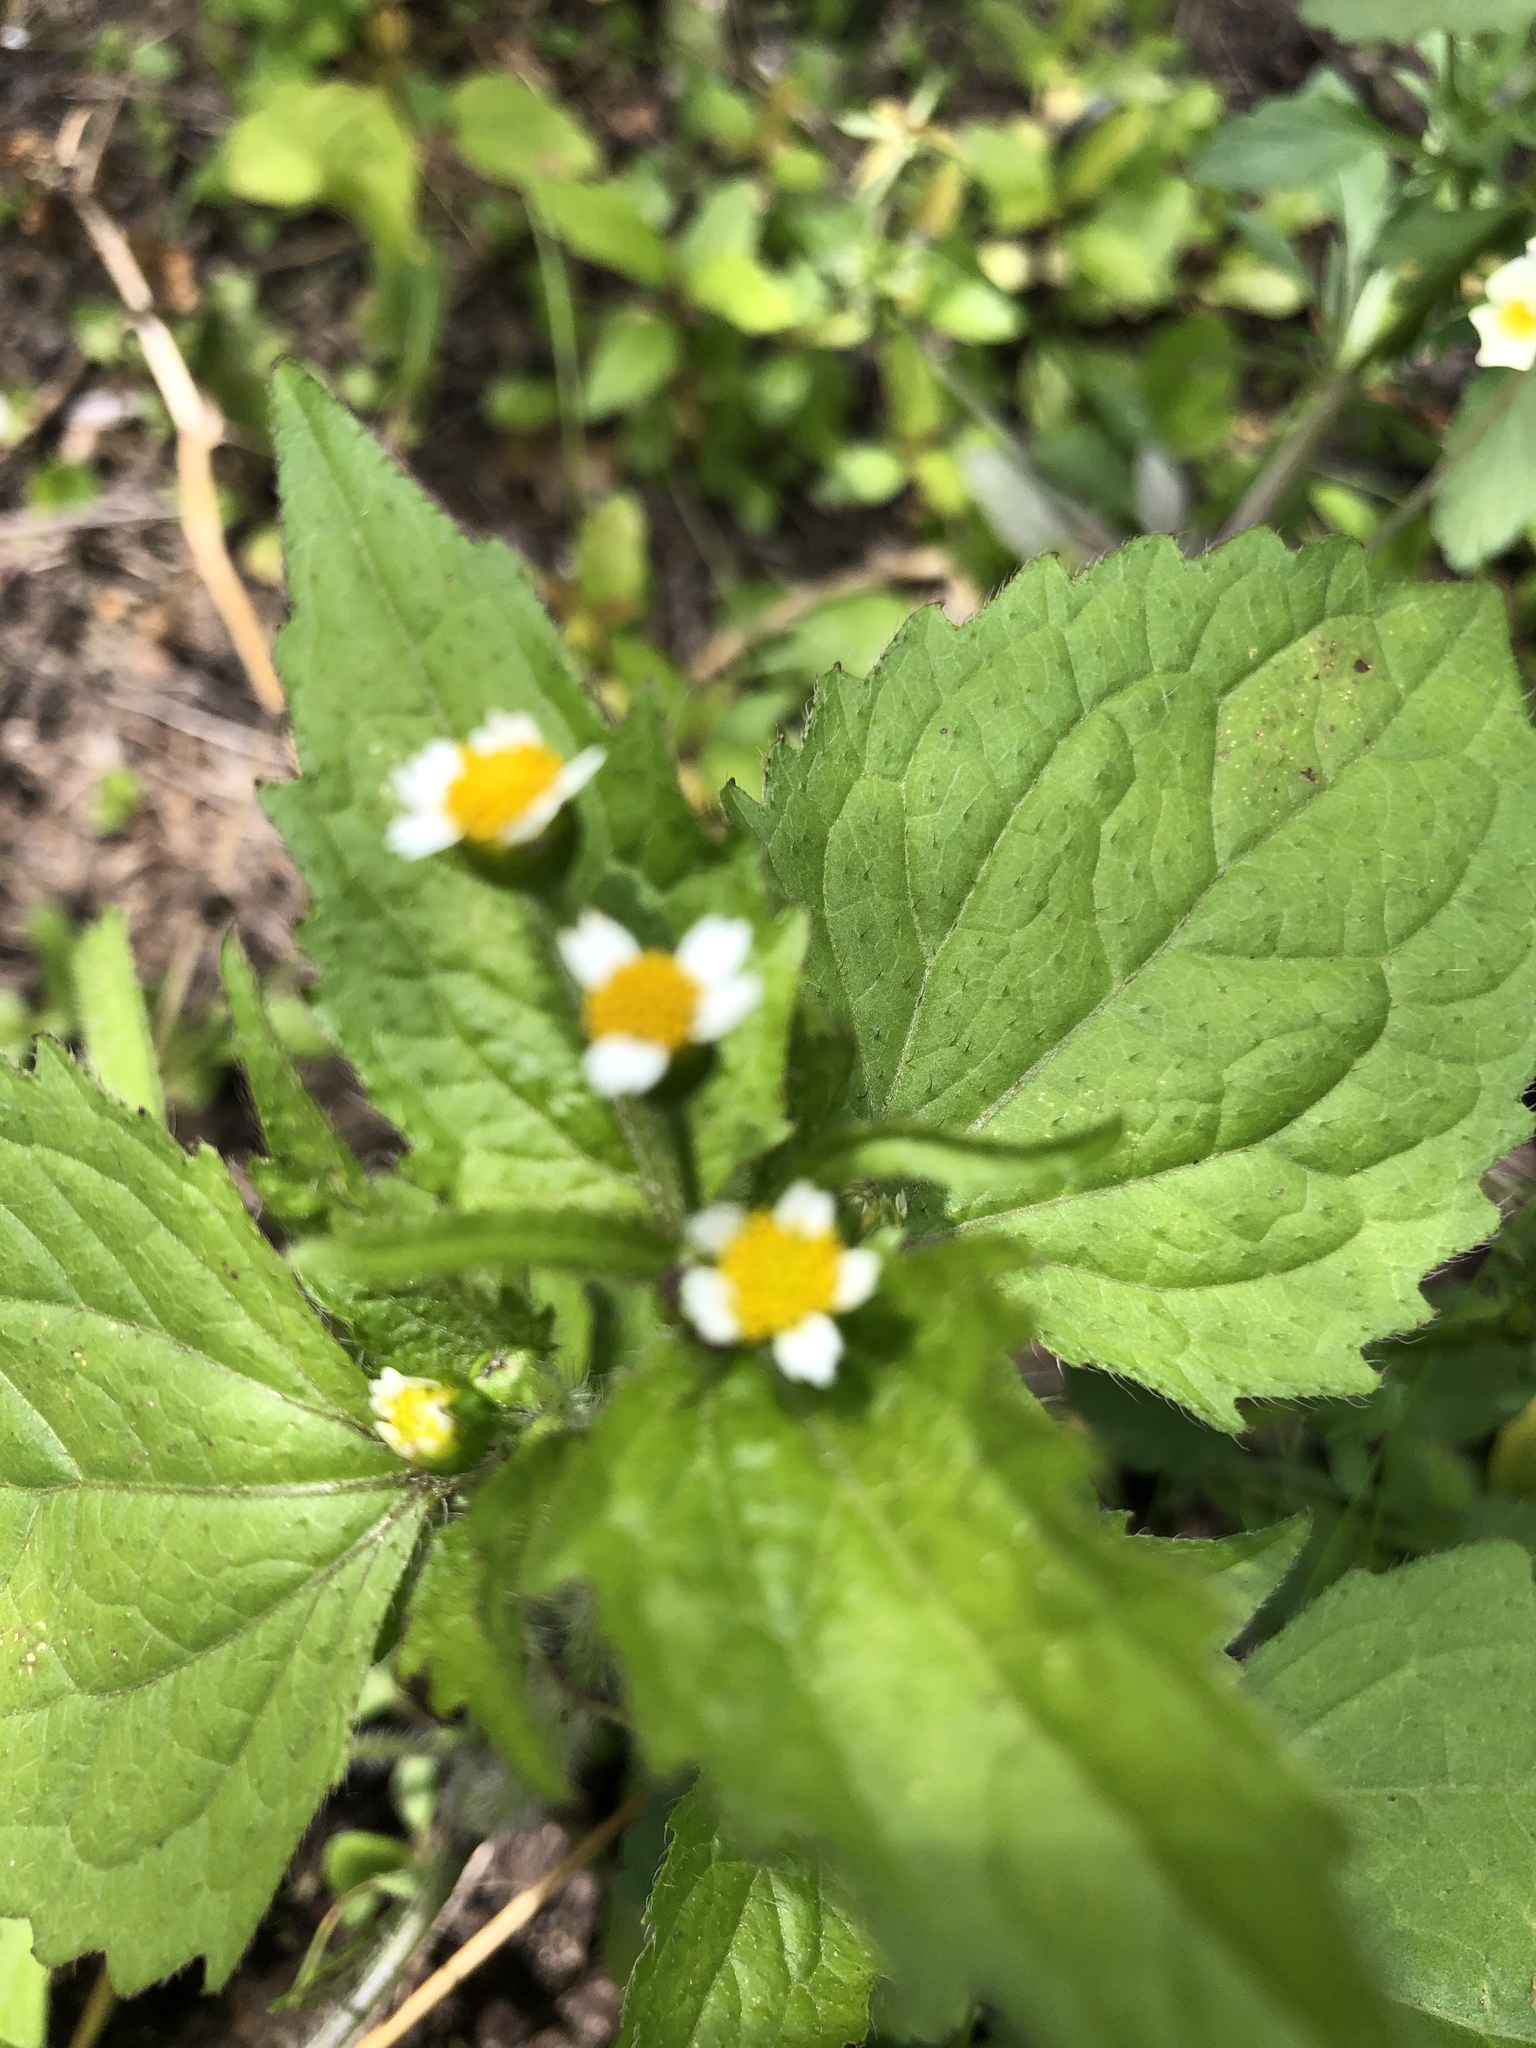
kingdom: Plantae
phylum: Tracheophyta
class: Magnoliopsida
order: Asterales
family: Asteraceae
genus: Galinsoga
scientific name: Galinsoga quadriradiata
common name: Shaggy soldier
